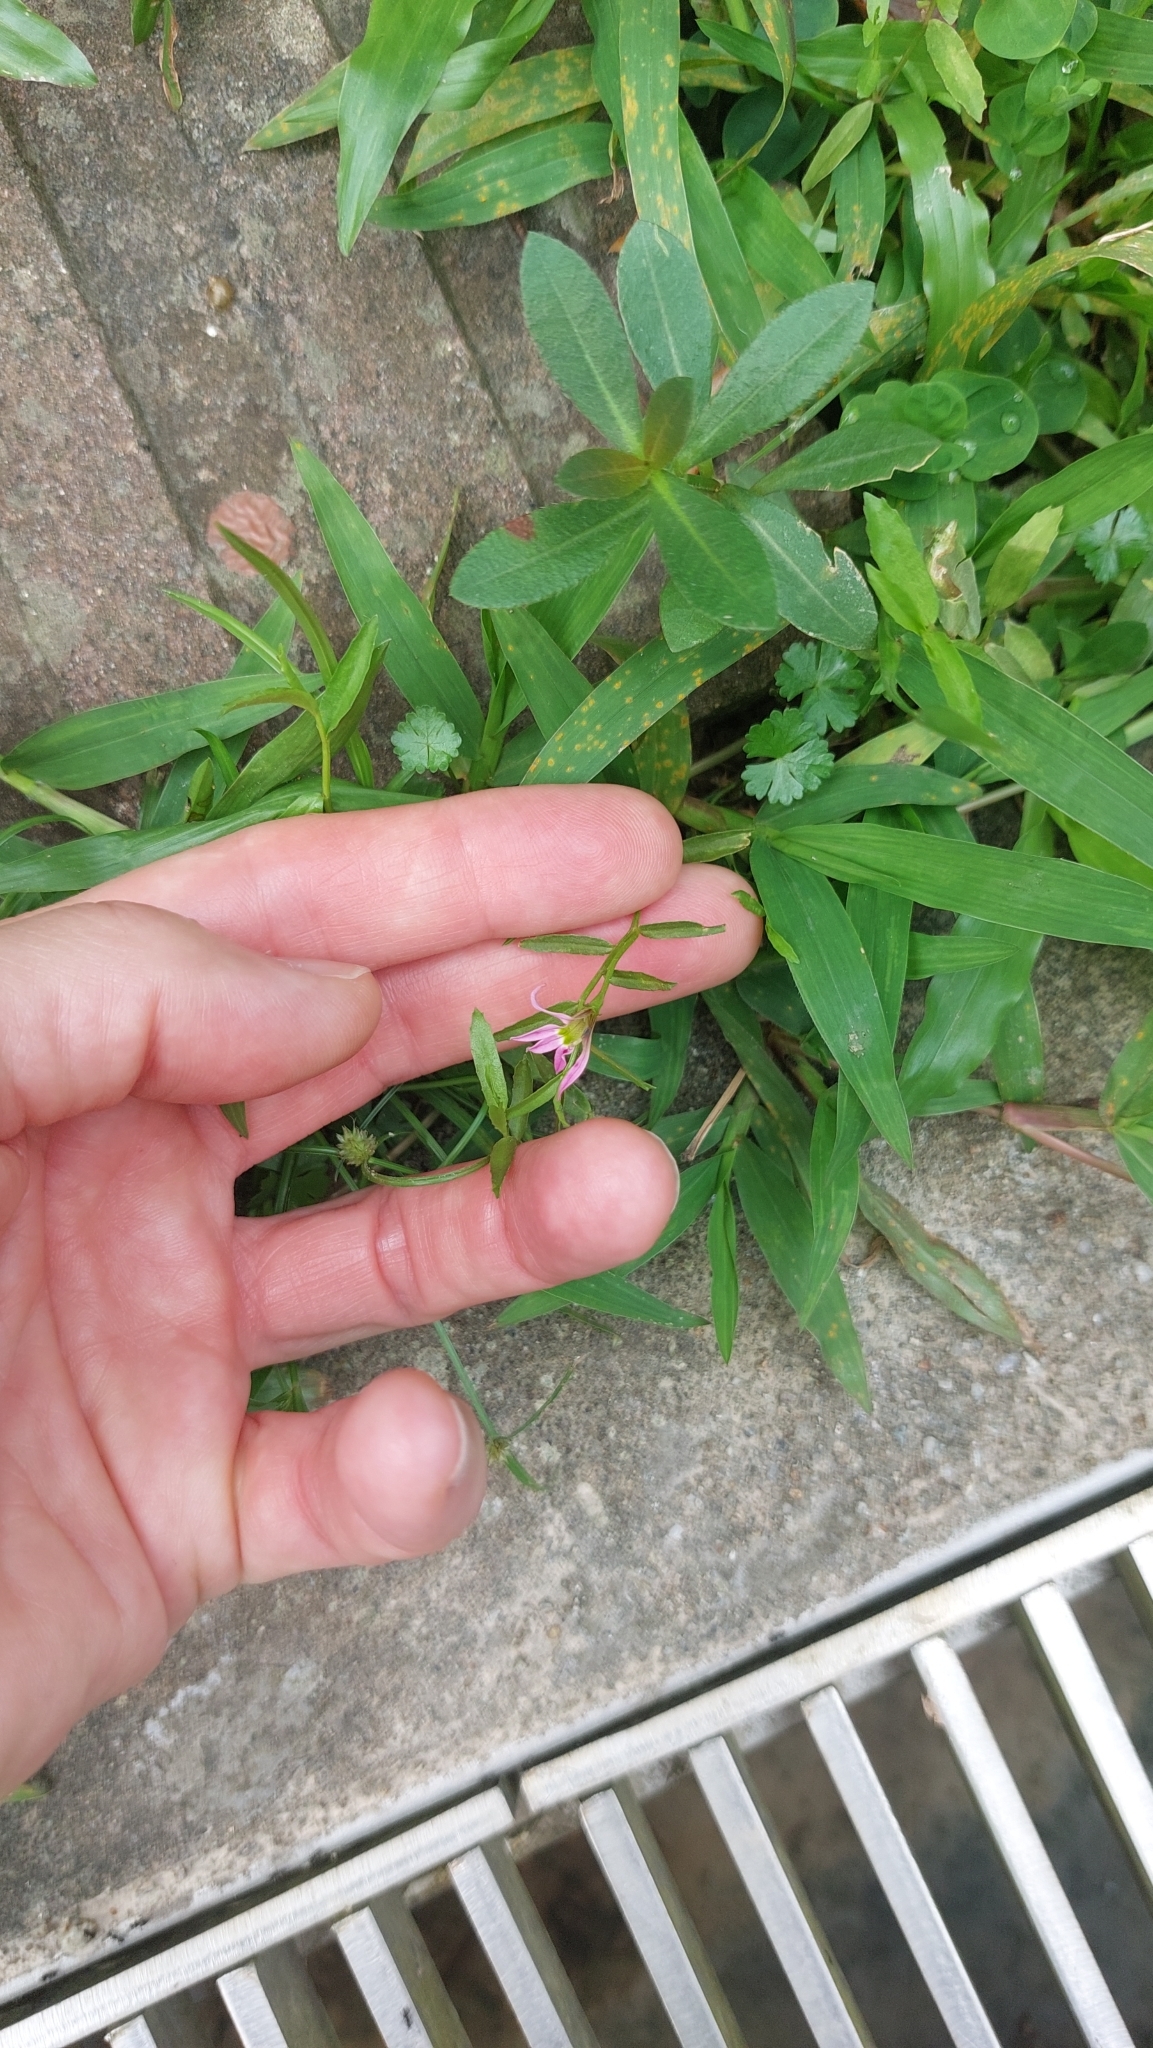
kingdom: Plantae
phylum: Tracheophyta
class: Magnoliopsida
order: Asterales
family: Campanulaceae
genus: Lobelia
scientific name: Lobelia chinensis
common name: Chinese lobelia
